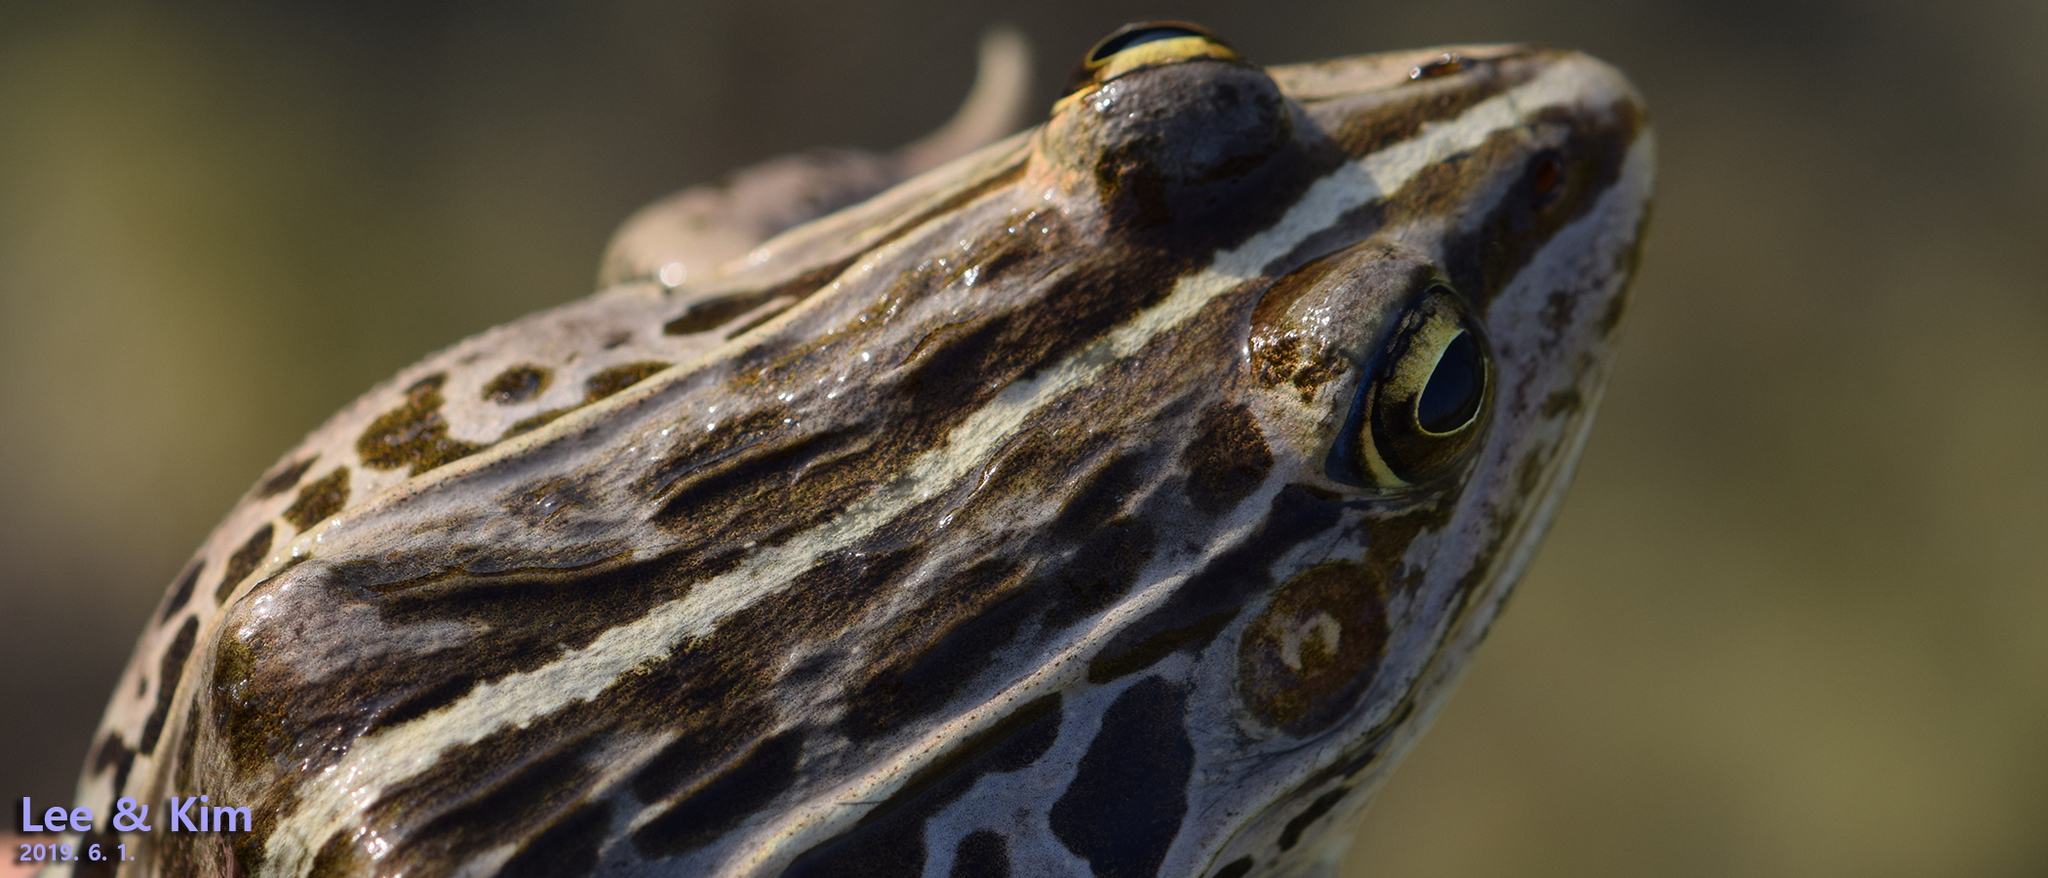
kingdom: Animalia
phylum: Chordata
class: Amphibia
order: Anura
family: Ranidae
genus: Pelophylax
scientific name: Pelophylax nigromaculatus
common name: Black-spotted pond frog
